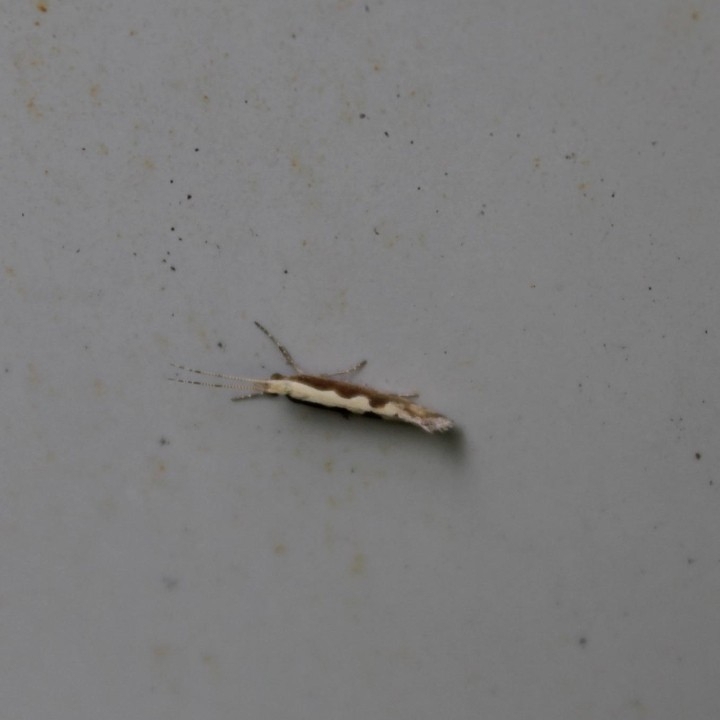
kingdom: Animalia
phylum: Arthropoda
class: Insecta
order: Lepidoptera
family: Plutellidae
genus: Plutella
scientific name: Plutella xylostella
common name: Diamond-back moth
